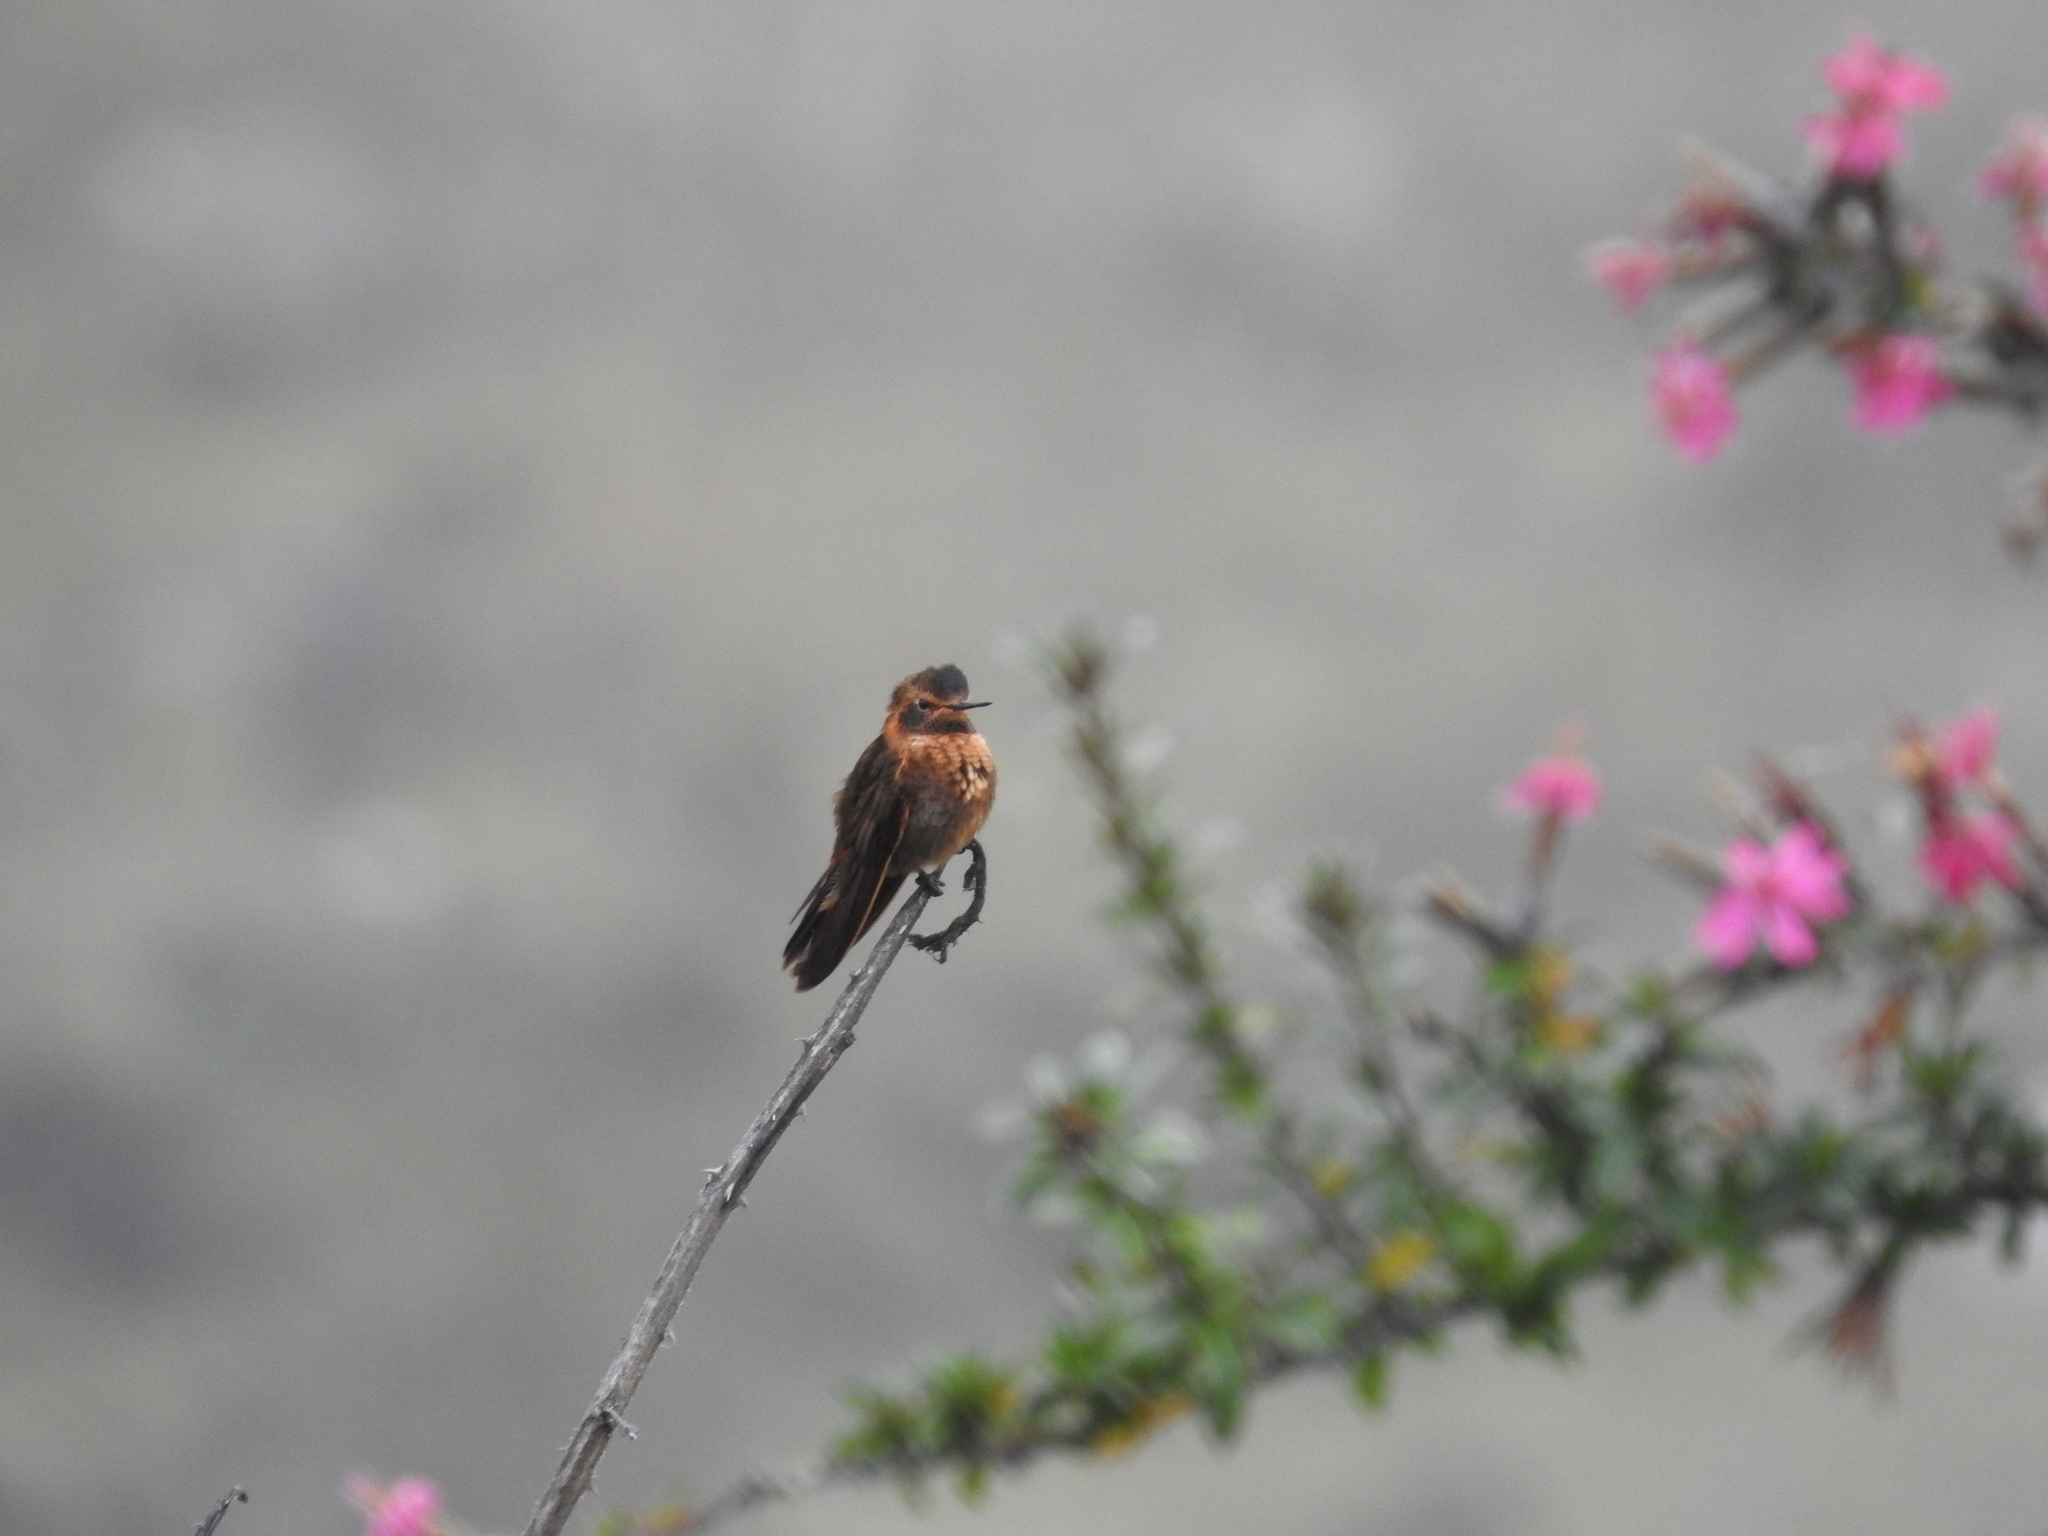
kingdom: Animalia
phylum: Chordata
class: Aves
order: Apodiformes
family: Trochilidae
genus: Aglaeactis
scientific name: Aglaeactis cupripennis
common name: Shining sunbeam
